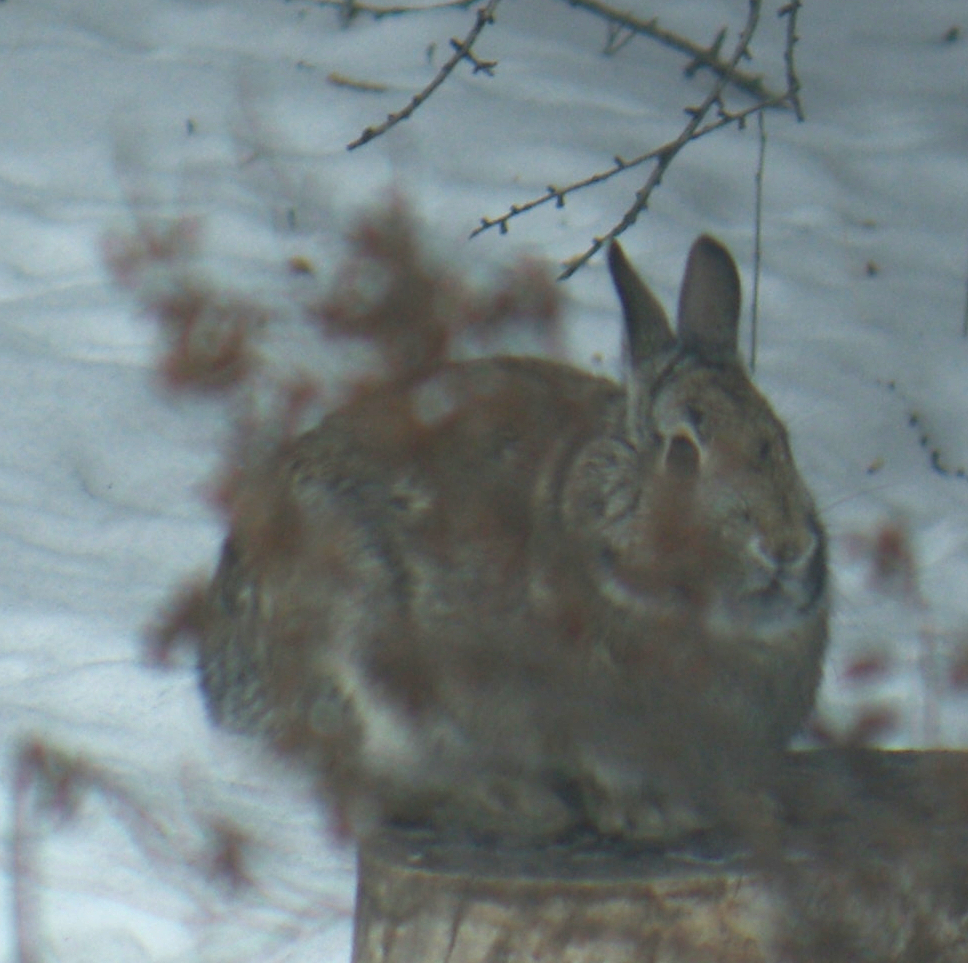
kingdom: Animalia
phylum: Chordata
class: Mammalia
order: Lagomorpha
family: Leporidae
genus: Sylvilagus
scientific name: Sylvilagus floridanus
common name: Eastern cottontail
